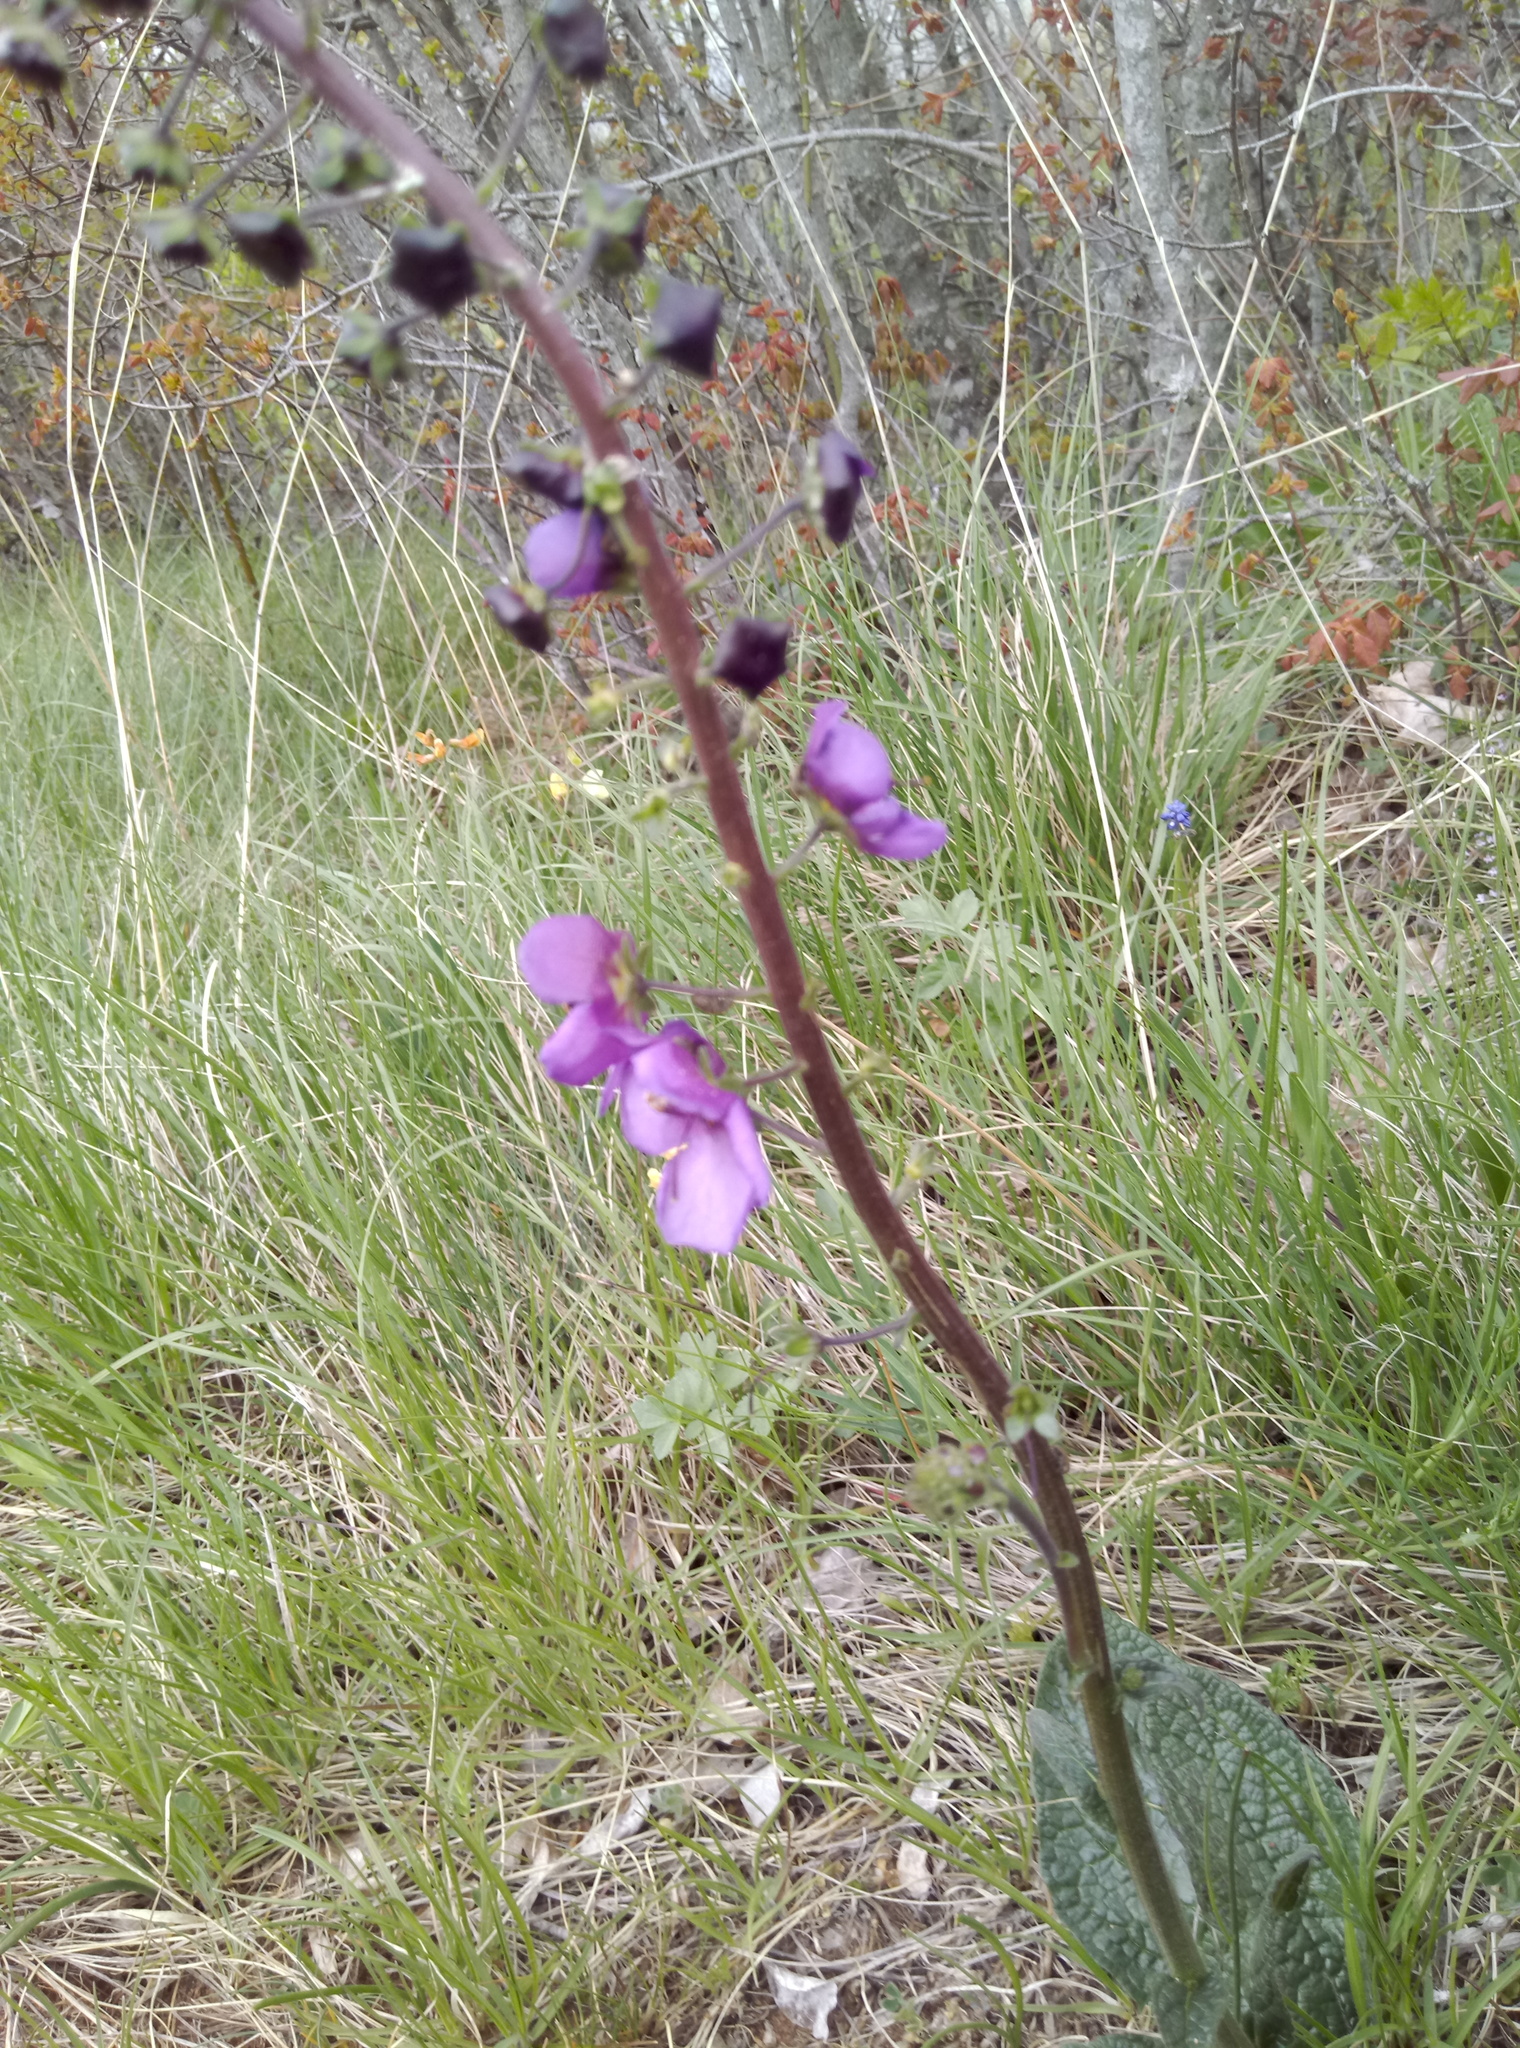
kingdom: Plantae
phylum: Tracheophyta
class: Magnoliopsida
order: Lamiales
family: Scrophulariaceae
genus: Verbascum
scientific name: Verbascum phoeniceum
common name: Purple mullein
